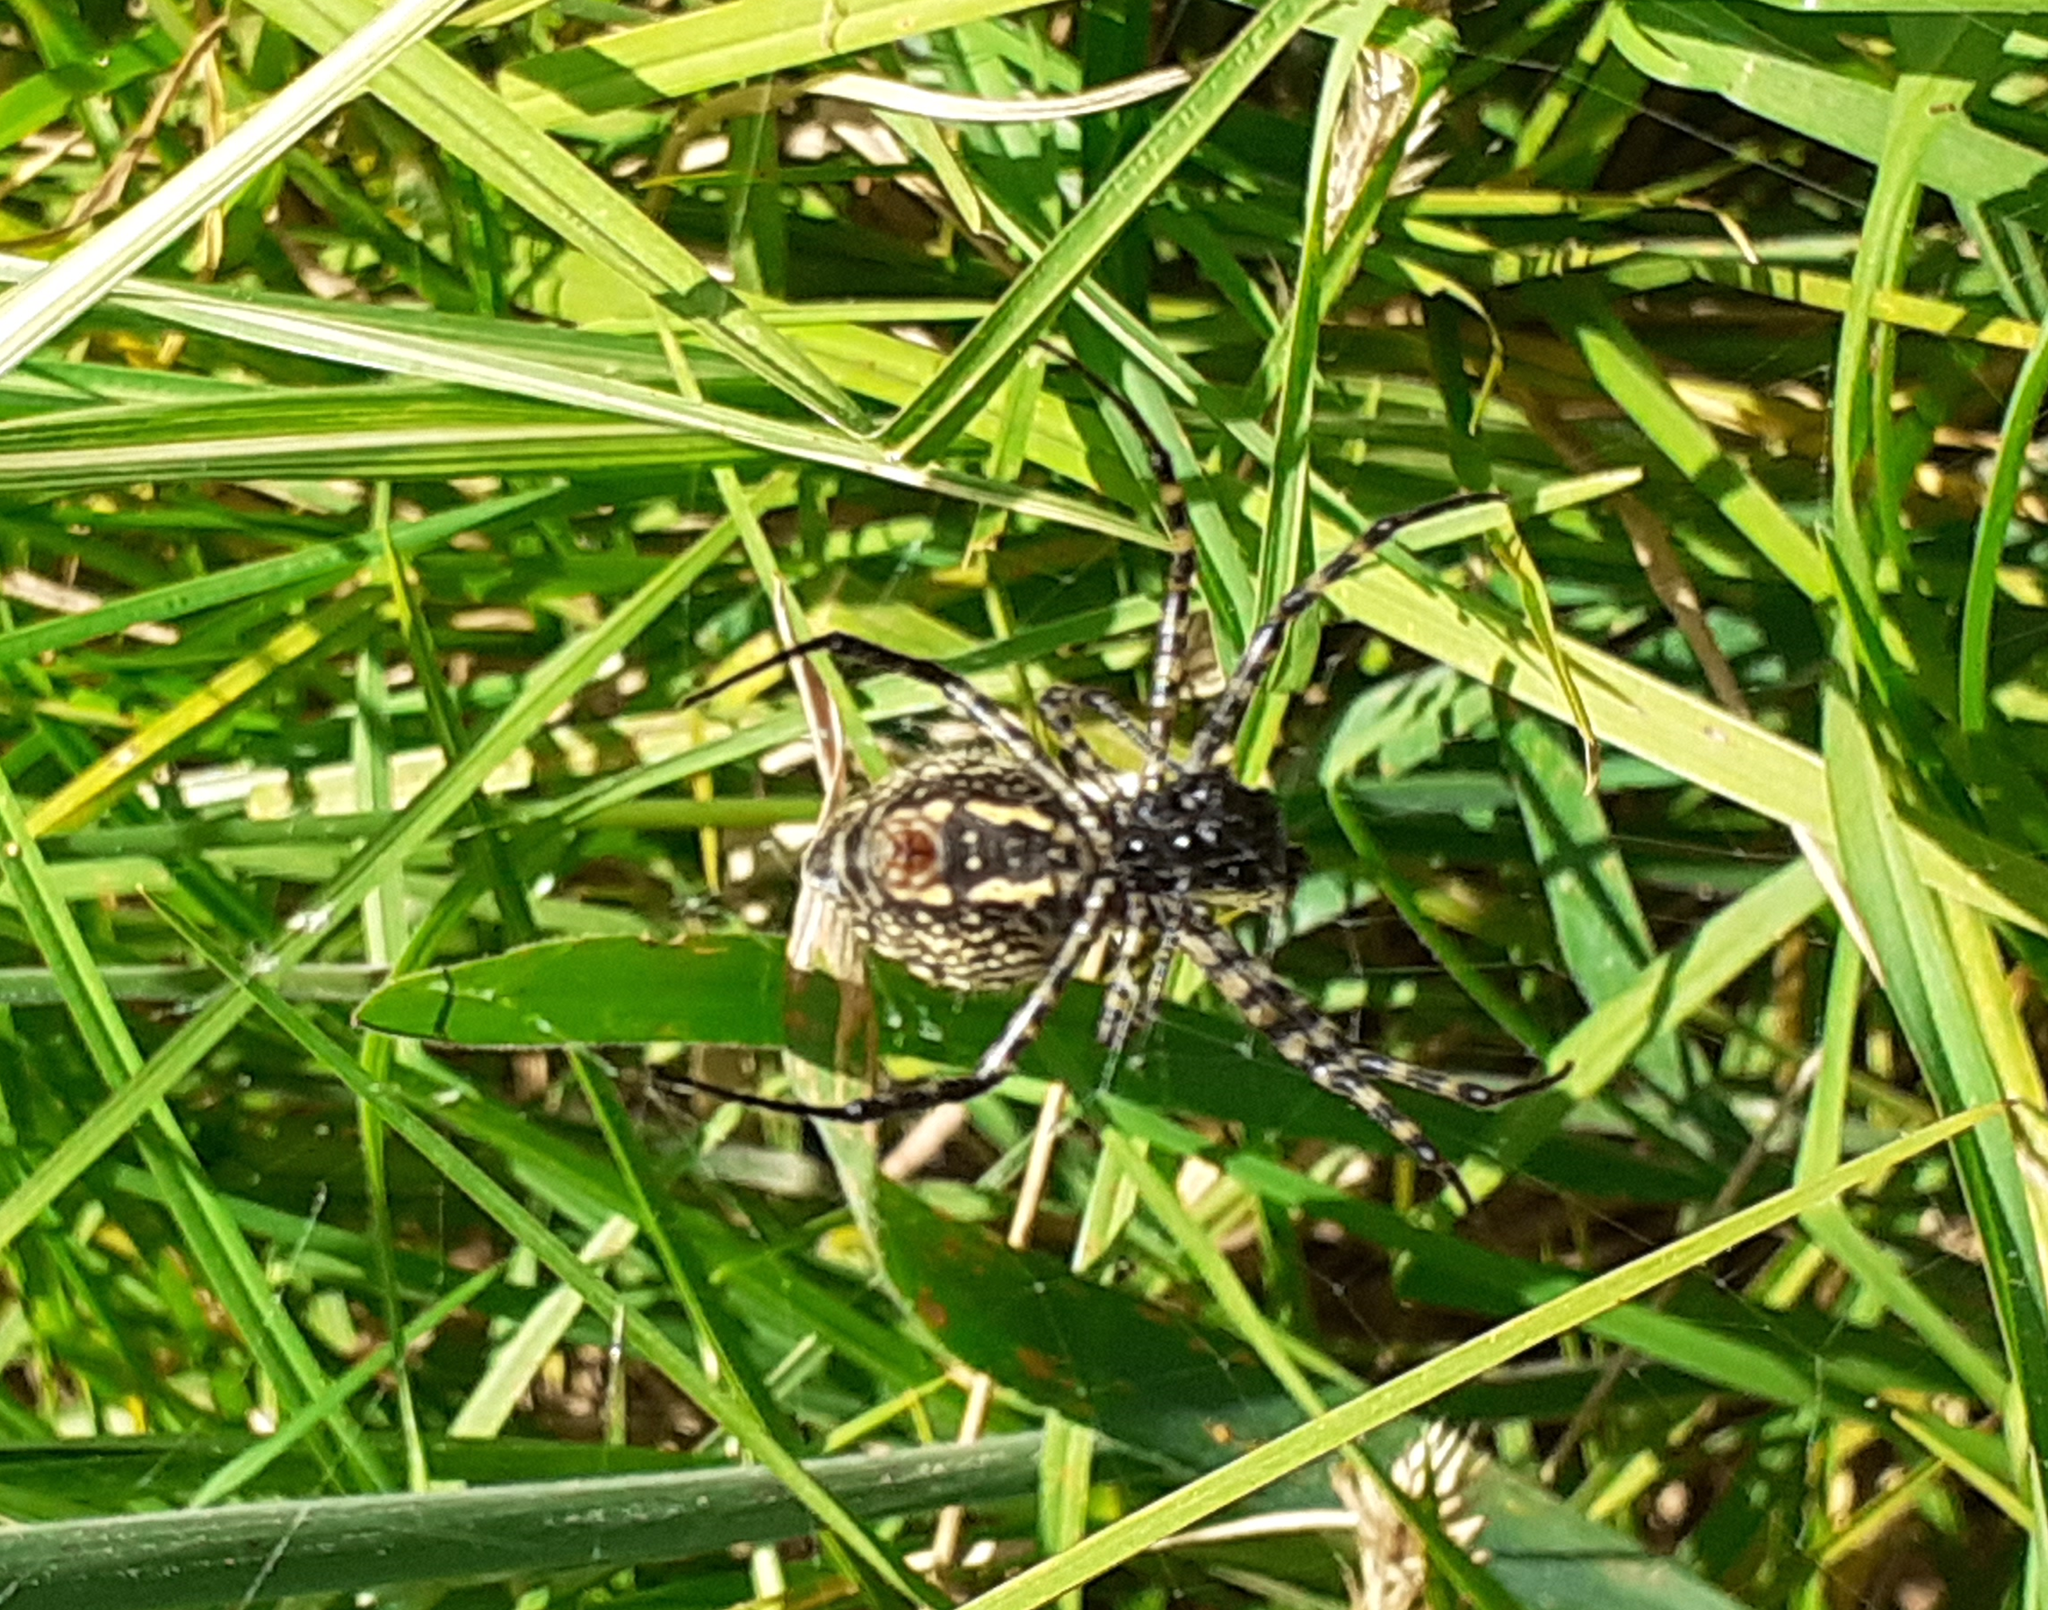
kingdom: Animalia
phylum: Arthropoda
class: Arachnida
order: Araneae
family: Araneidae
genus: Argiope
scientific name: Argiope trifasciata
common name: Banded garden spider
